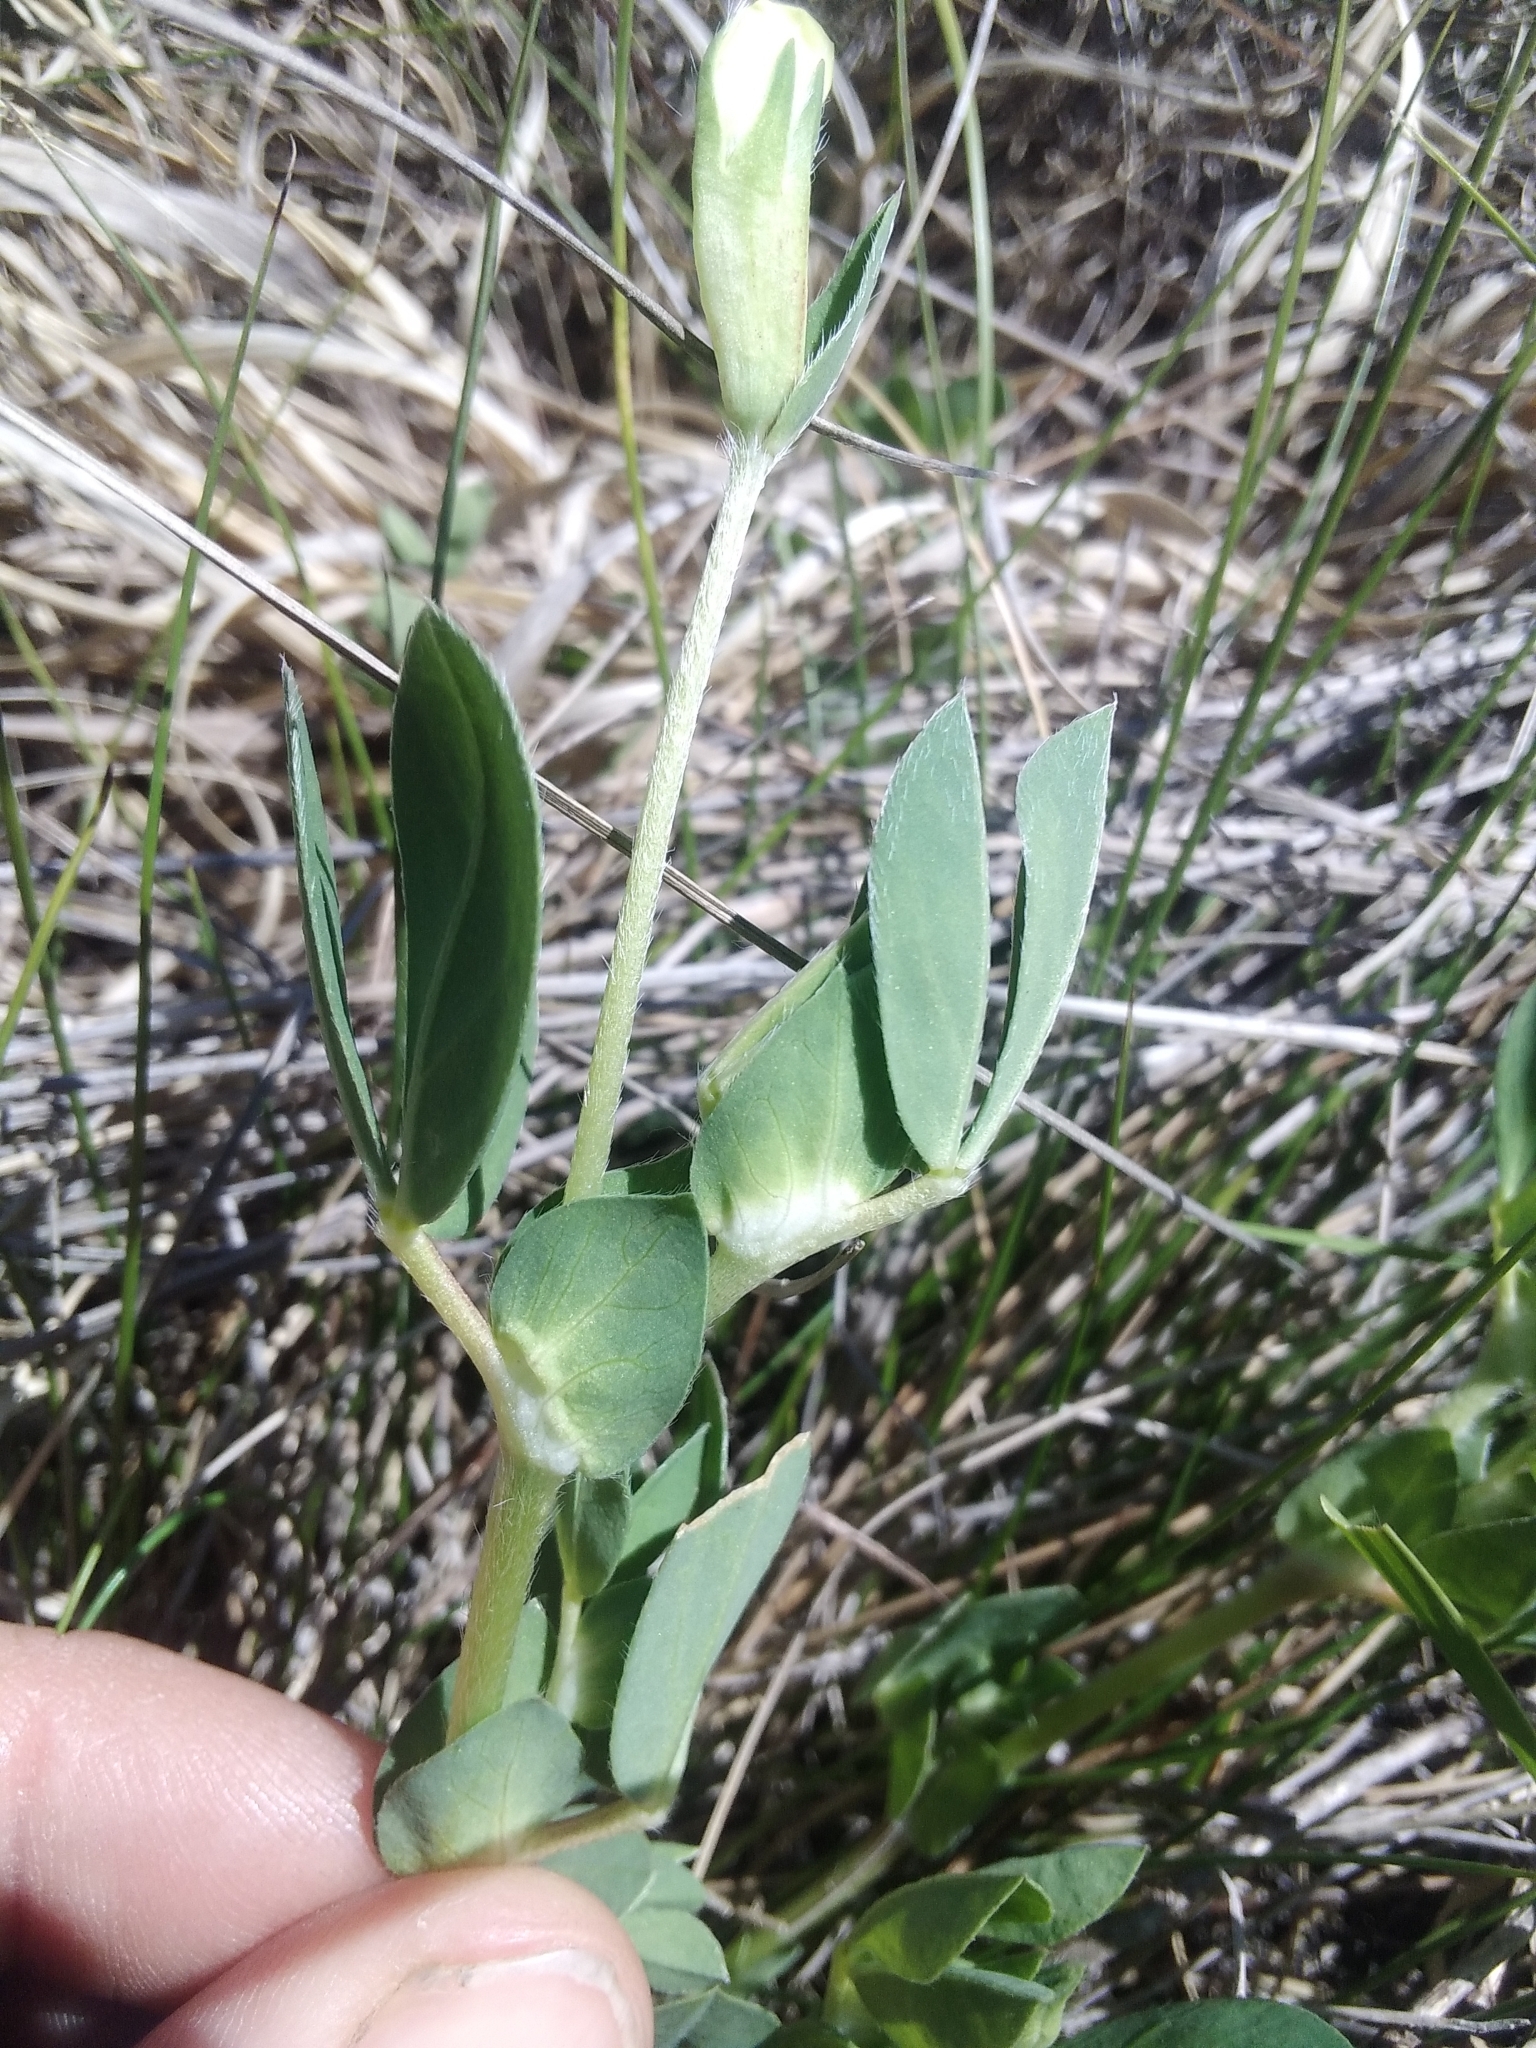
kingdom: Plantae
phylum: Tracheophyta
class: Magnoliopsida
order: Fabales
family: Fabaceae
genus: Lotus
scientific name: Lotus maritimus
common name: Dragon's-teeth
